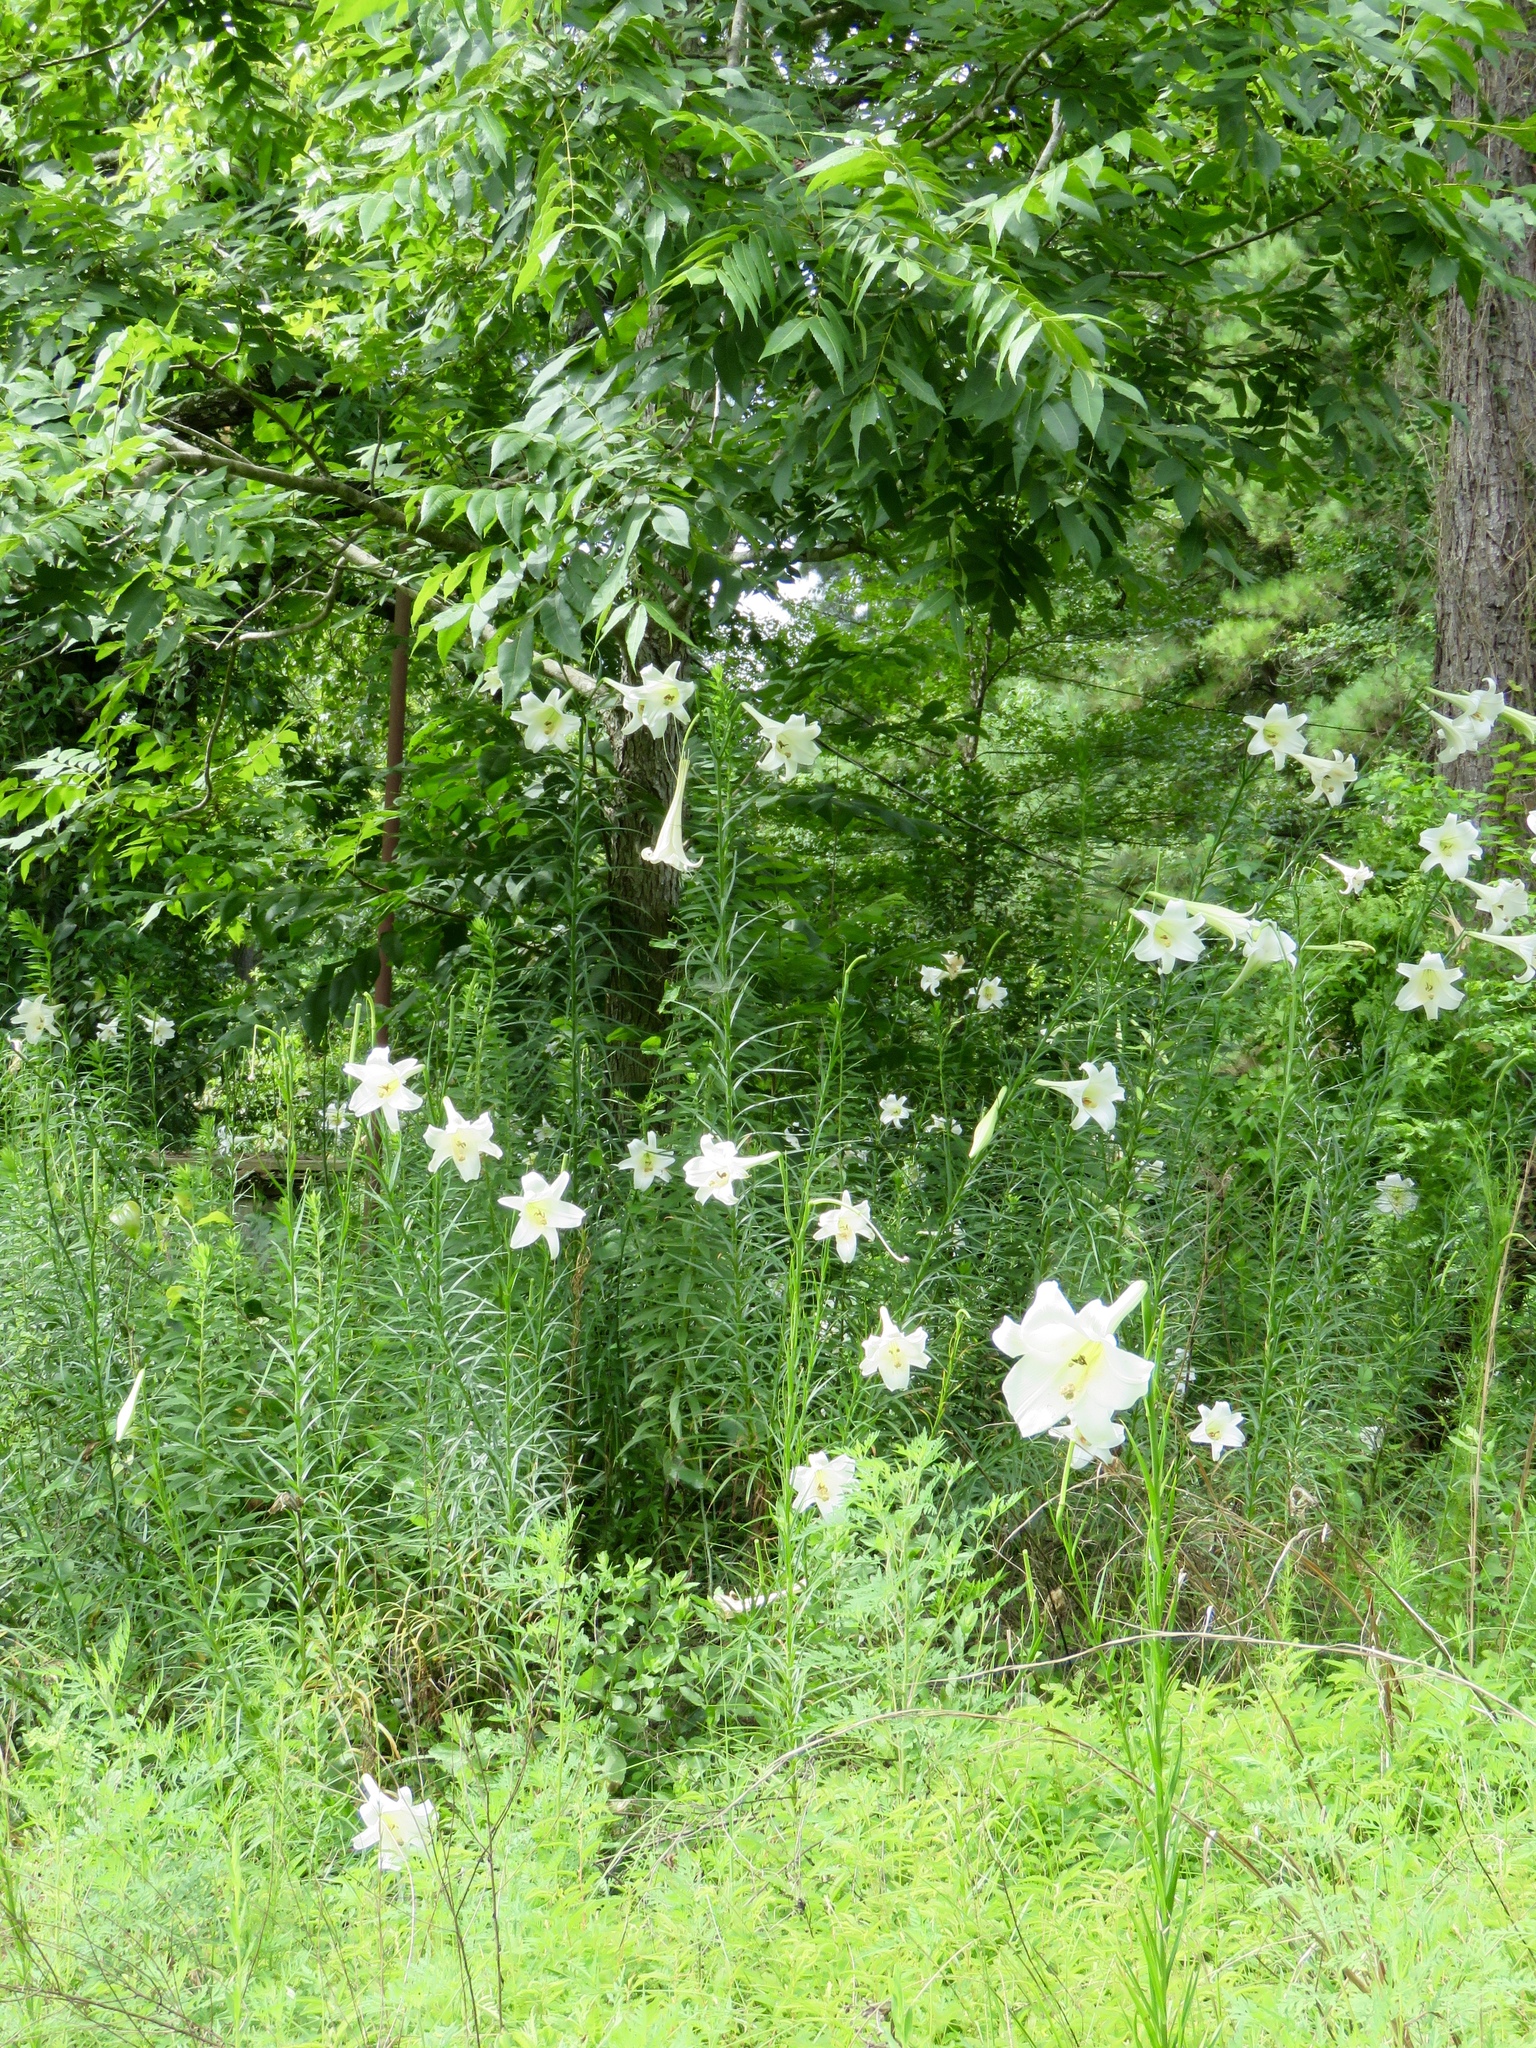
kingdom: Plantae
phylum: Tracheophyta
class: Liliopsida
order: Liliales
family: Liliaceae
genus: Lilium
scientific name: Lilium philippinense
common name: Philippine lily
